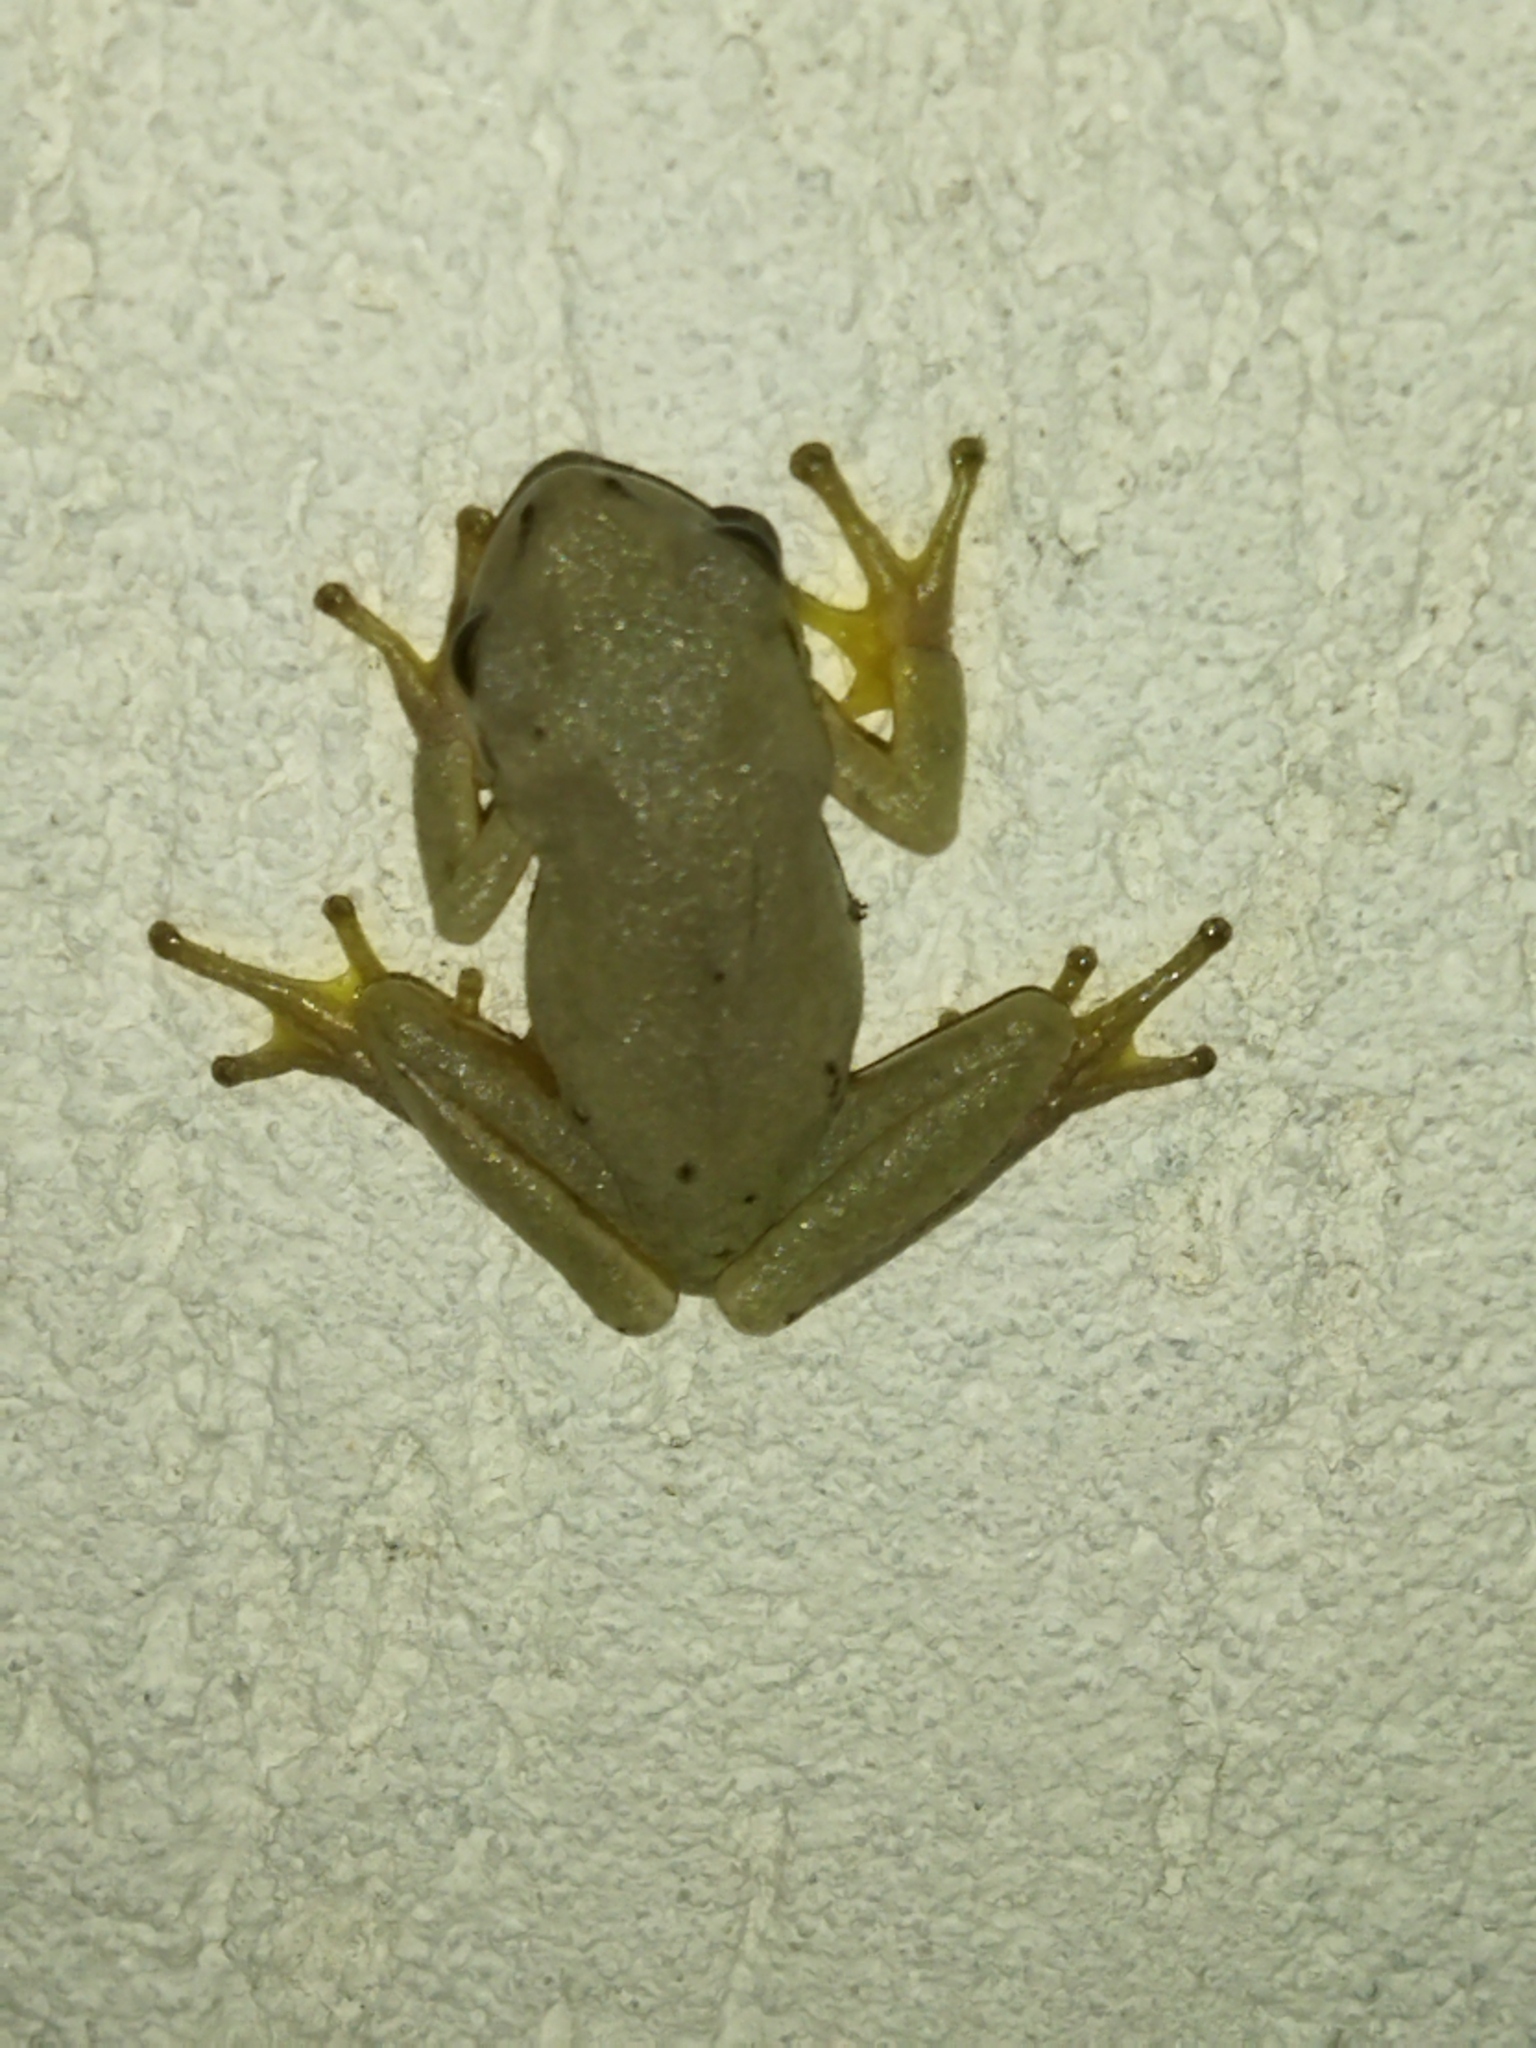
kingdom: Animalia
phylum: Chordata
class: Amphibia
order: Anura
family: Hylidae
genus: Hyla
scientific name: Hyla orientalis
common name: Caucasian treefrog
